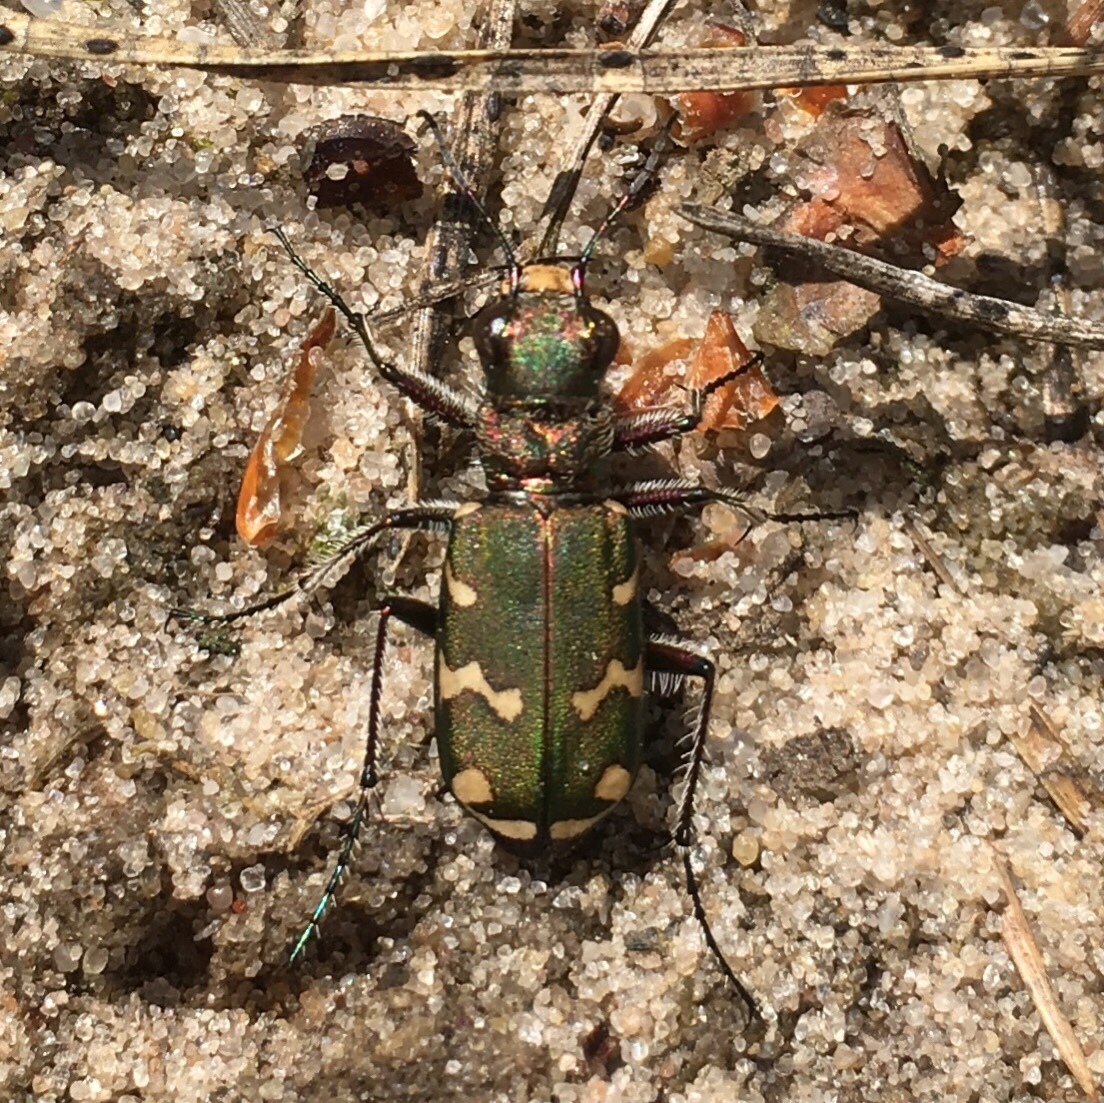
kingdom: Animalia
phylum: Arthropoda
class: Insecta
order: Coleoptera
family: Carabidae
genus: Cicindela
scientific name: Cicindela soluta
